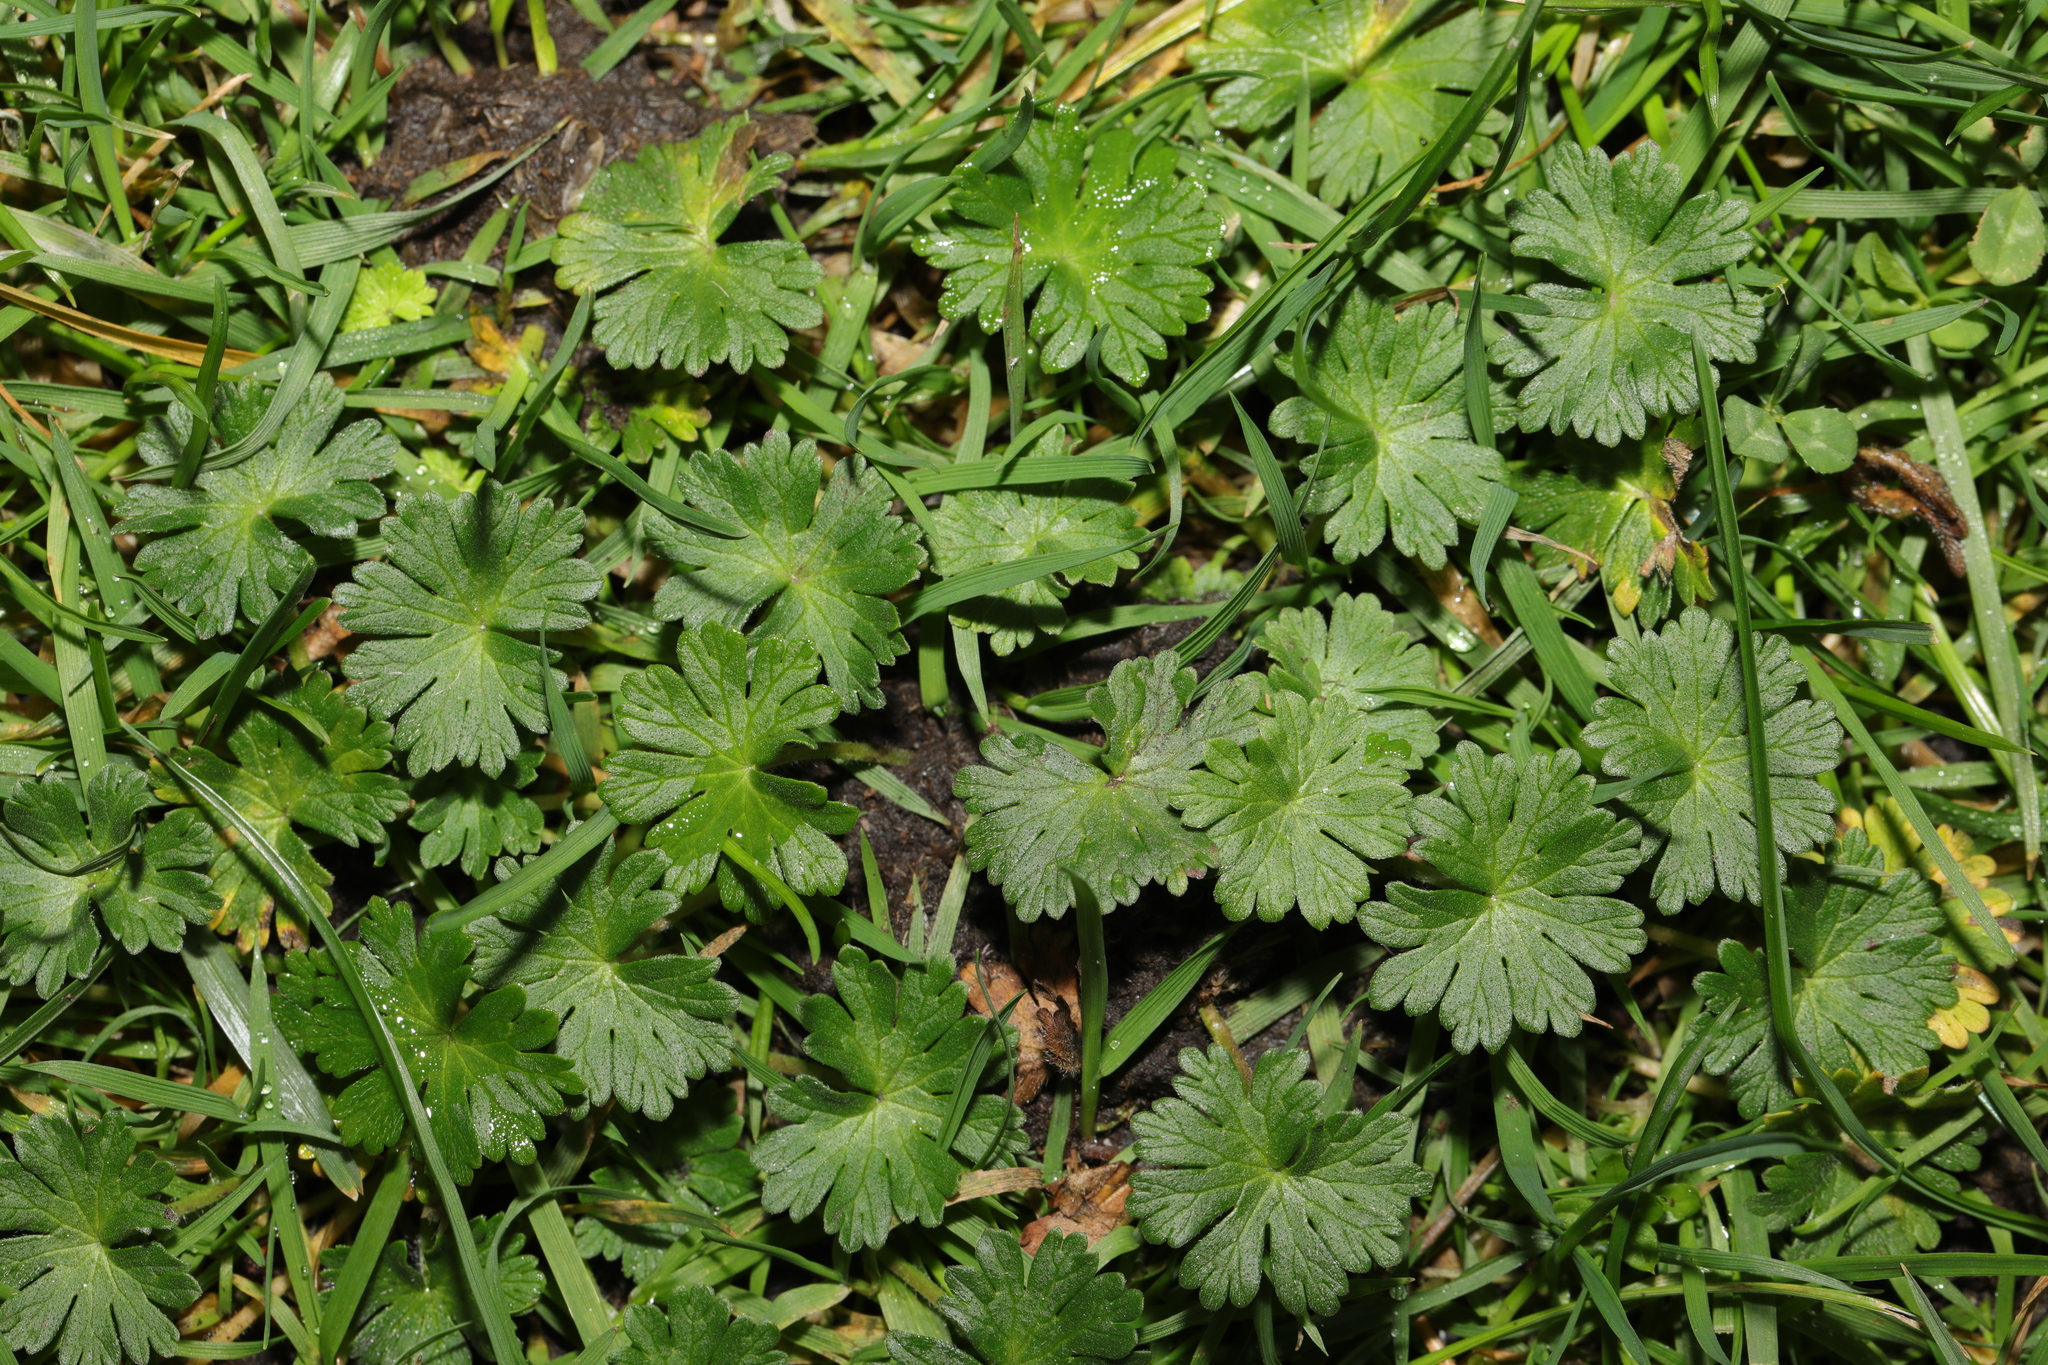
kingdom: Plantae
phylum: Tracheophyta
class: Magnoliopsida
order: Geraniales
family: Geraniaceae
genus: Geranium
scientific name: Geranium molle
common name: Dove's-foot crane's-bill
